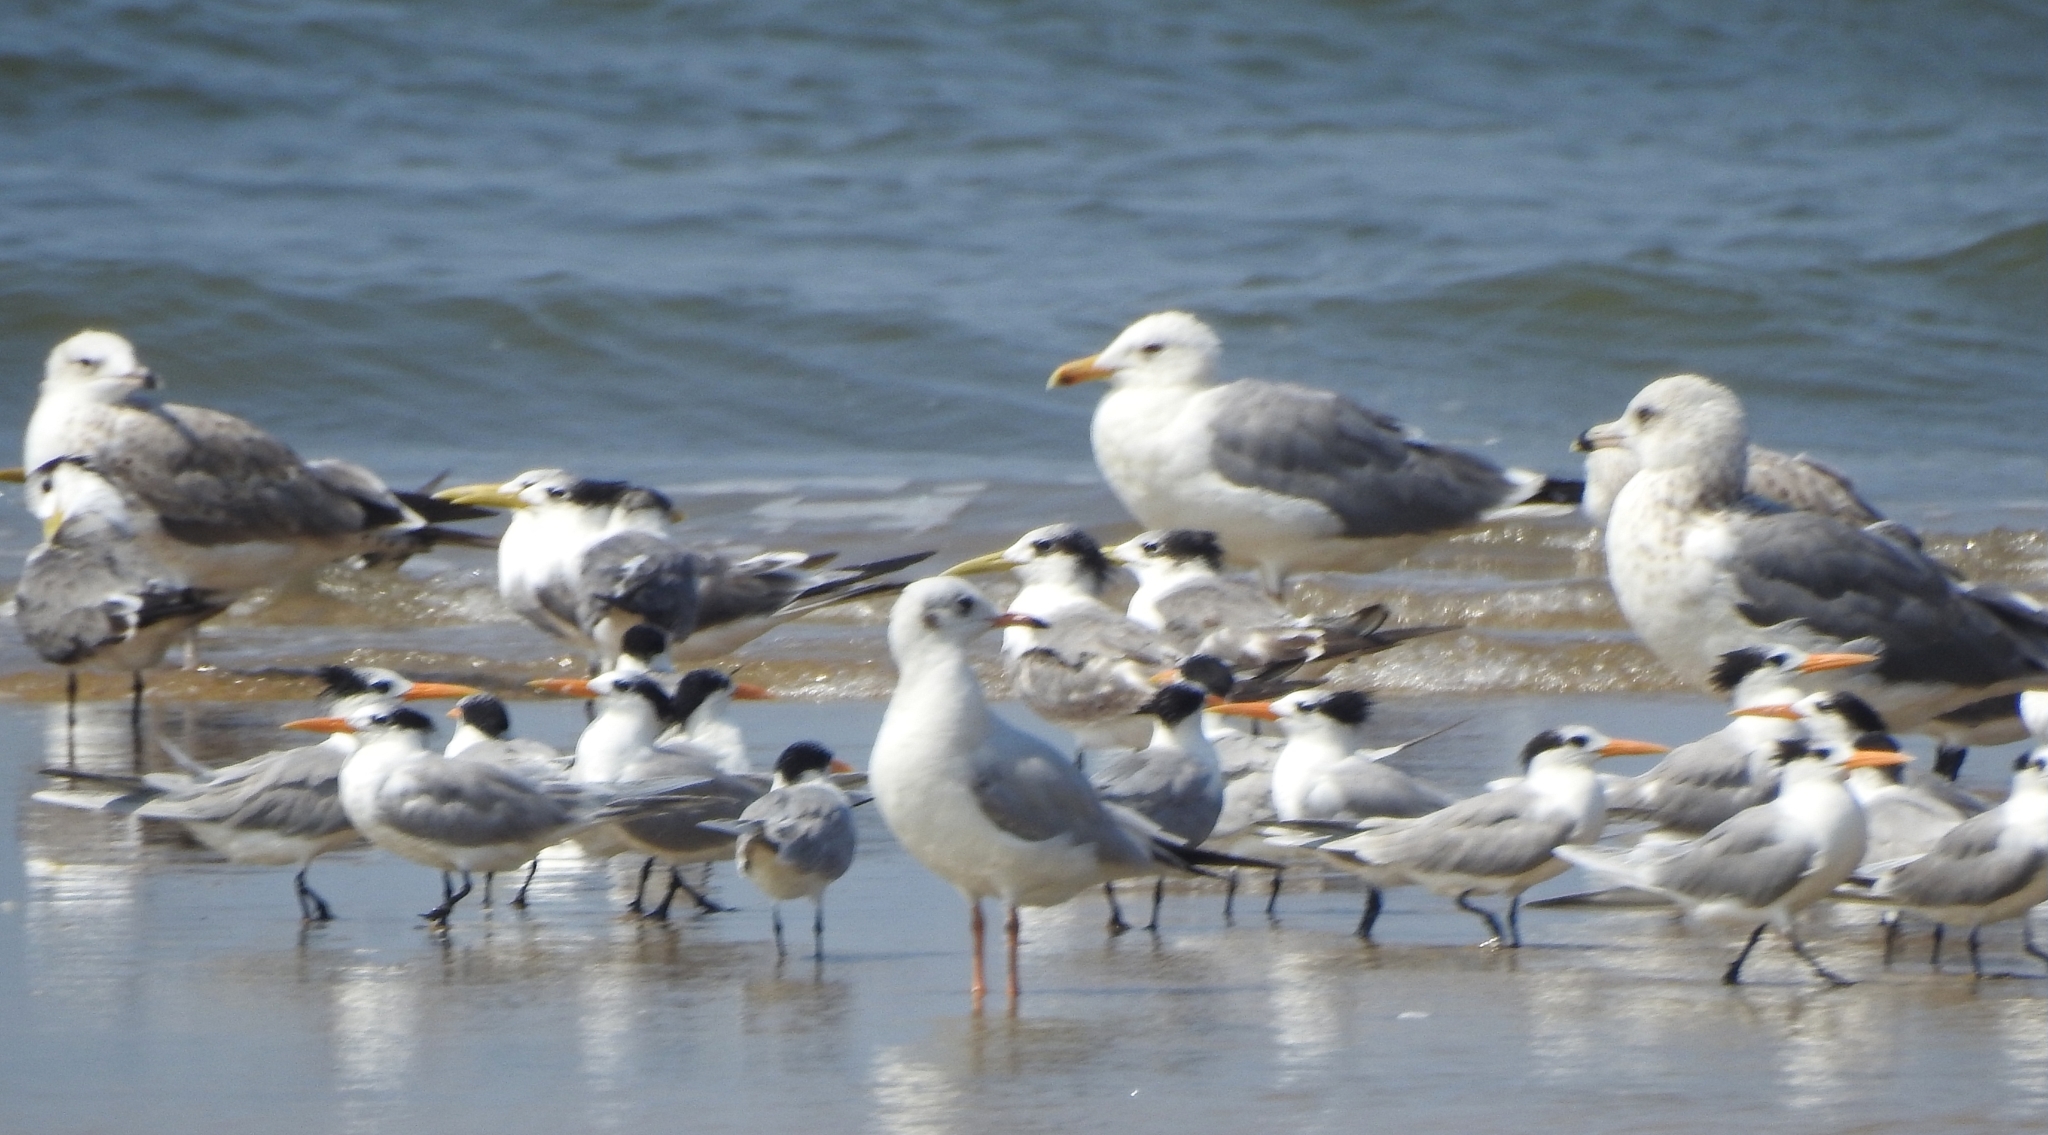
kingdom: Animalia
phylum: Chordata
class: Aves
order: Charadriiformes
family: Laridae
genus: Thalasseus
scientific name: Thalasseus bengalensis
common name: Lesser crested tern
